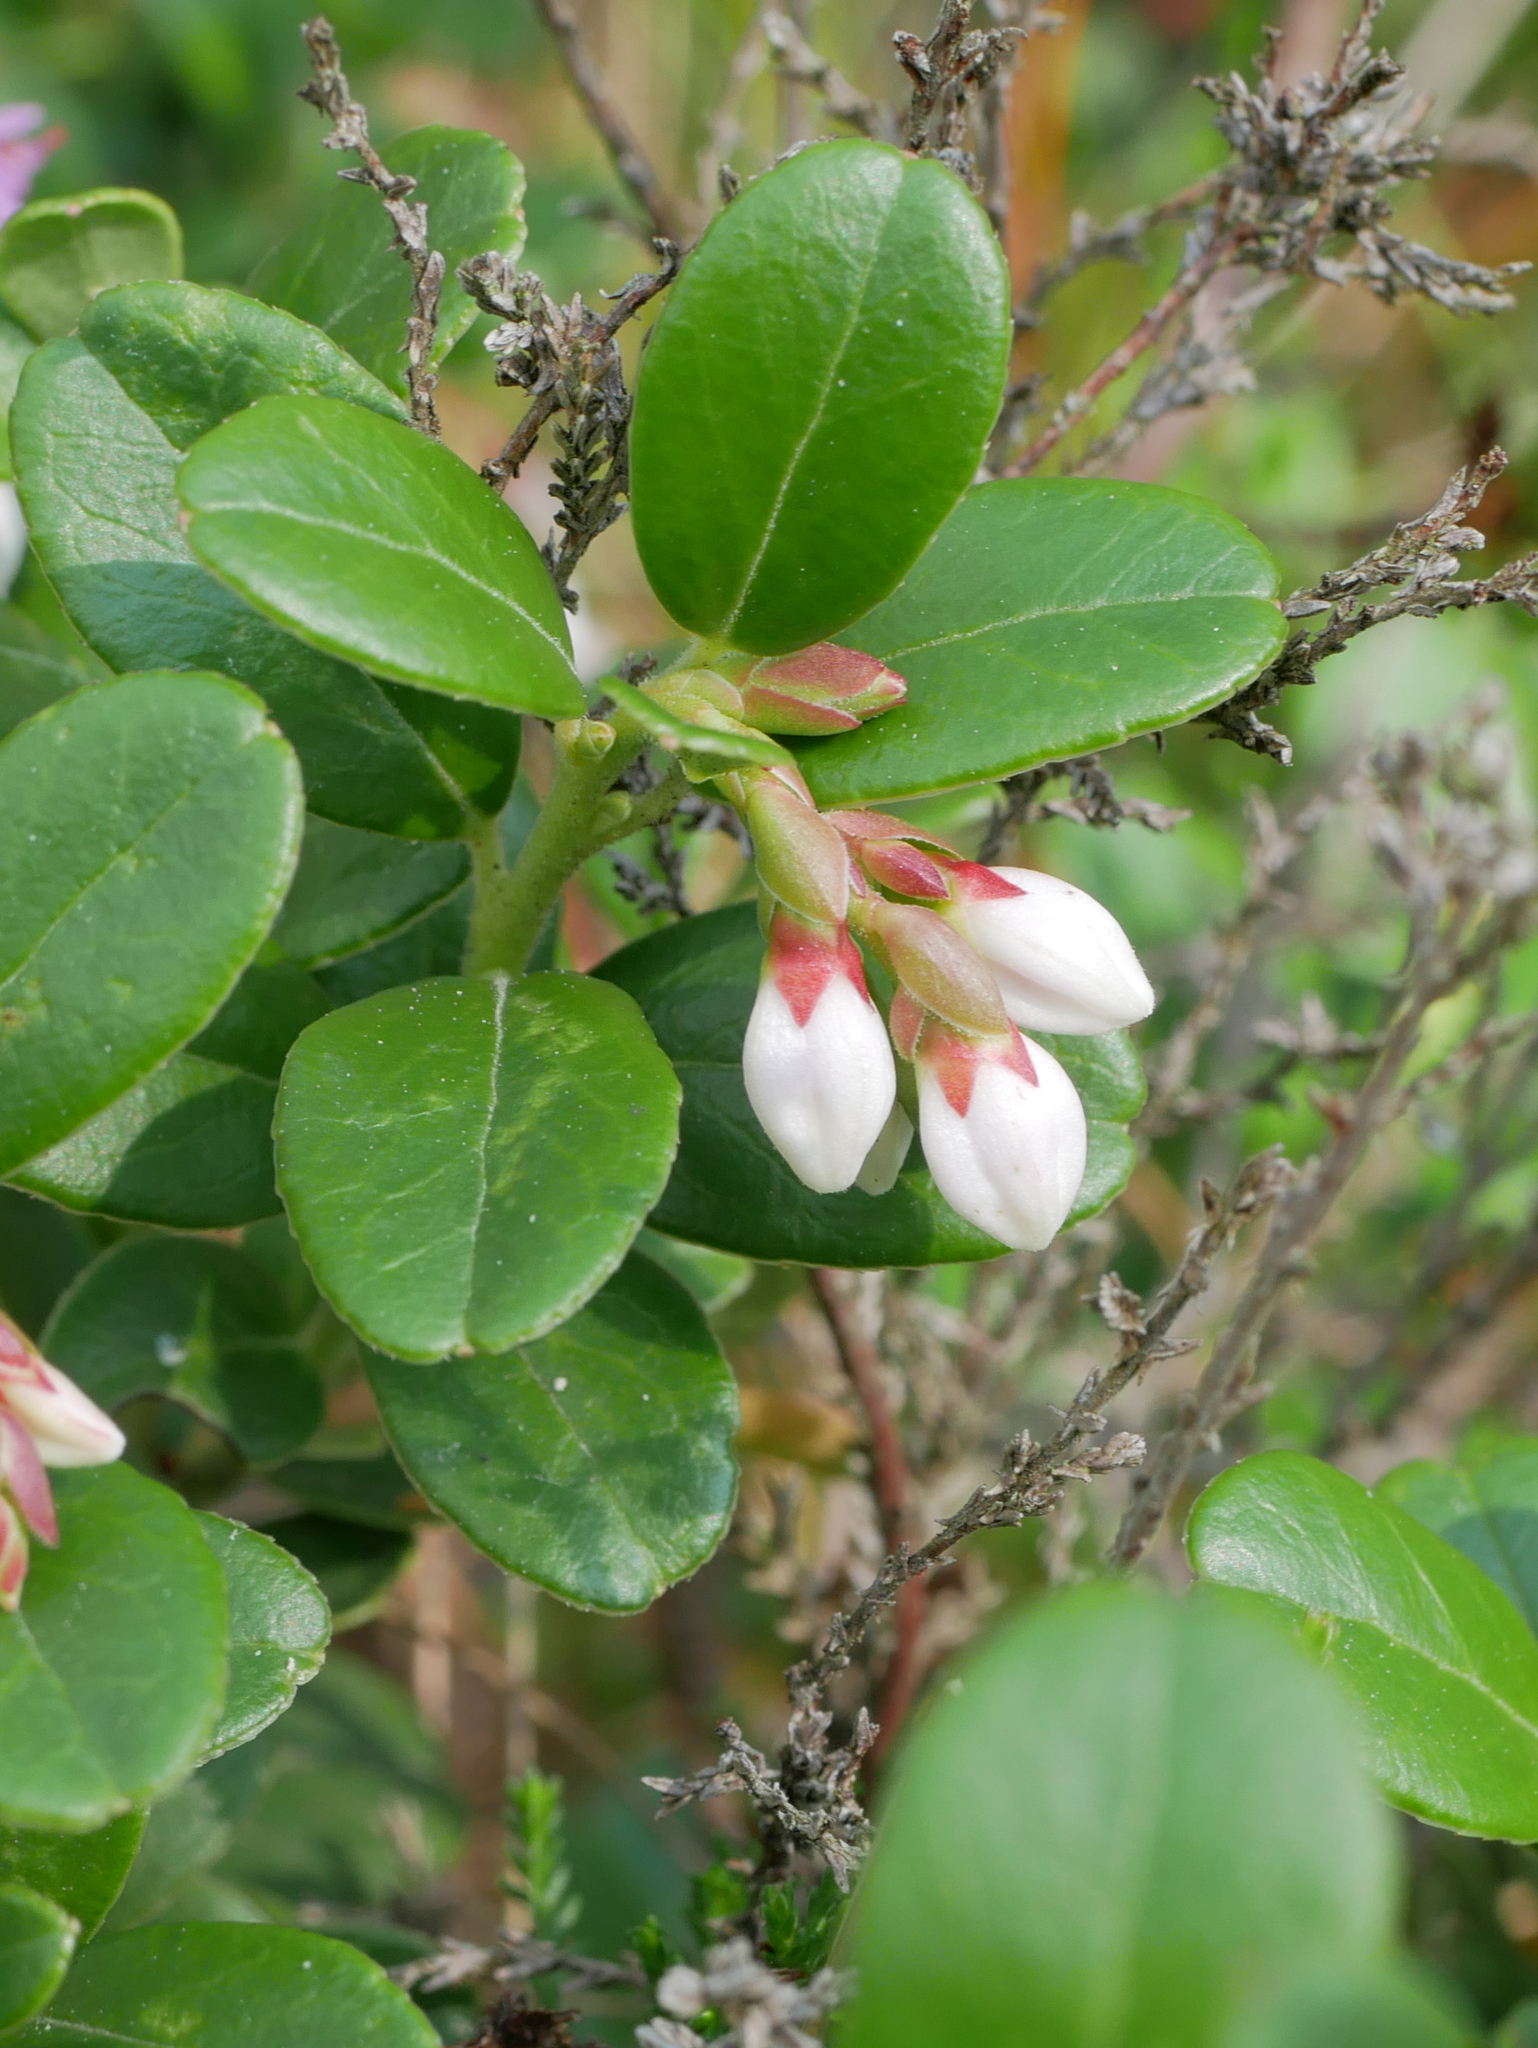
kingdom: Plantae
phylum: Tracheophyta
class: Magnoliopsida
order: Ericales
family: Ericaceae
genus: Vaccinium
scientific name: Vaccinium vitis-idaea
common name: Cowberry
